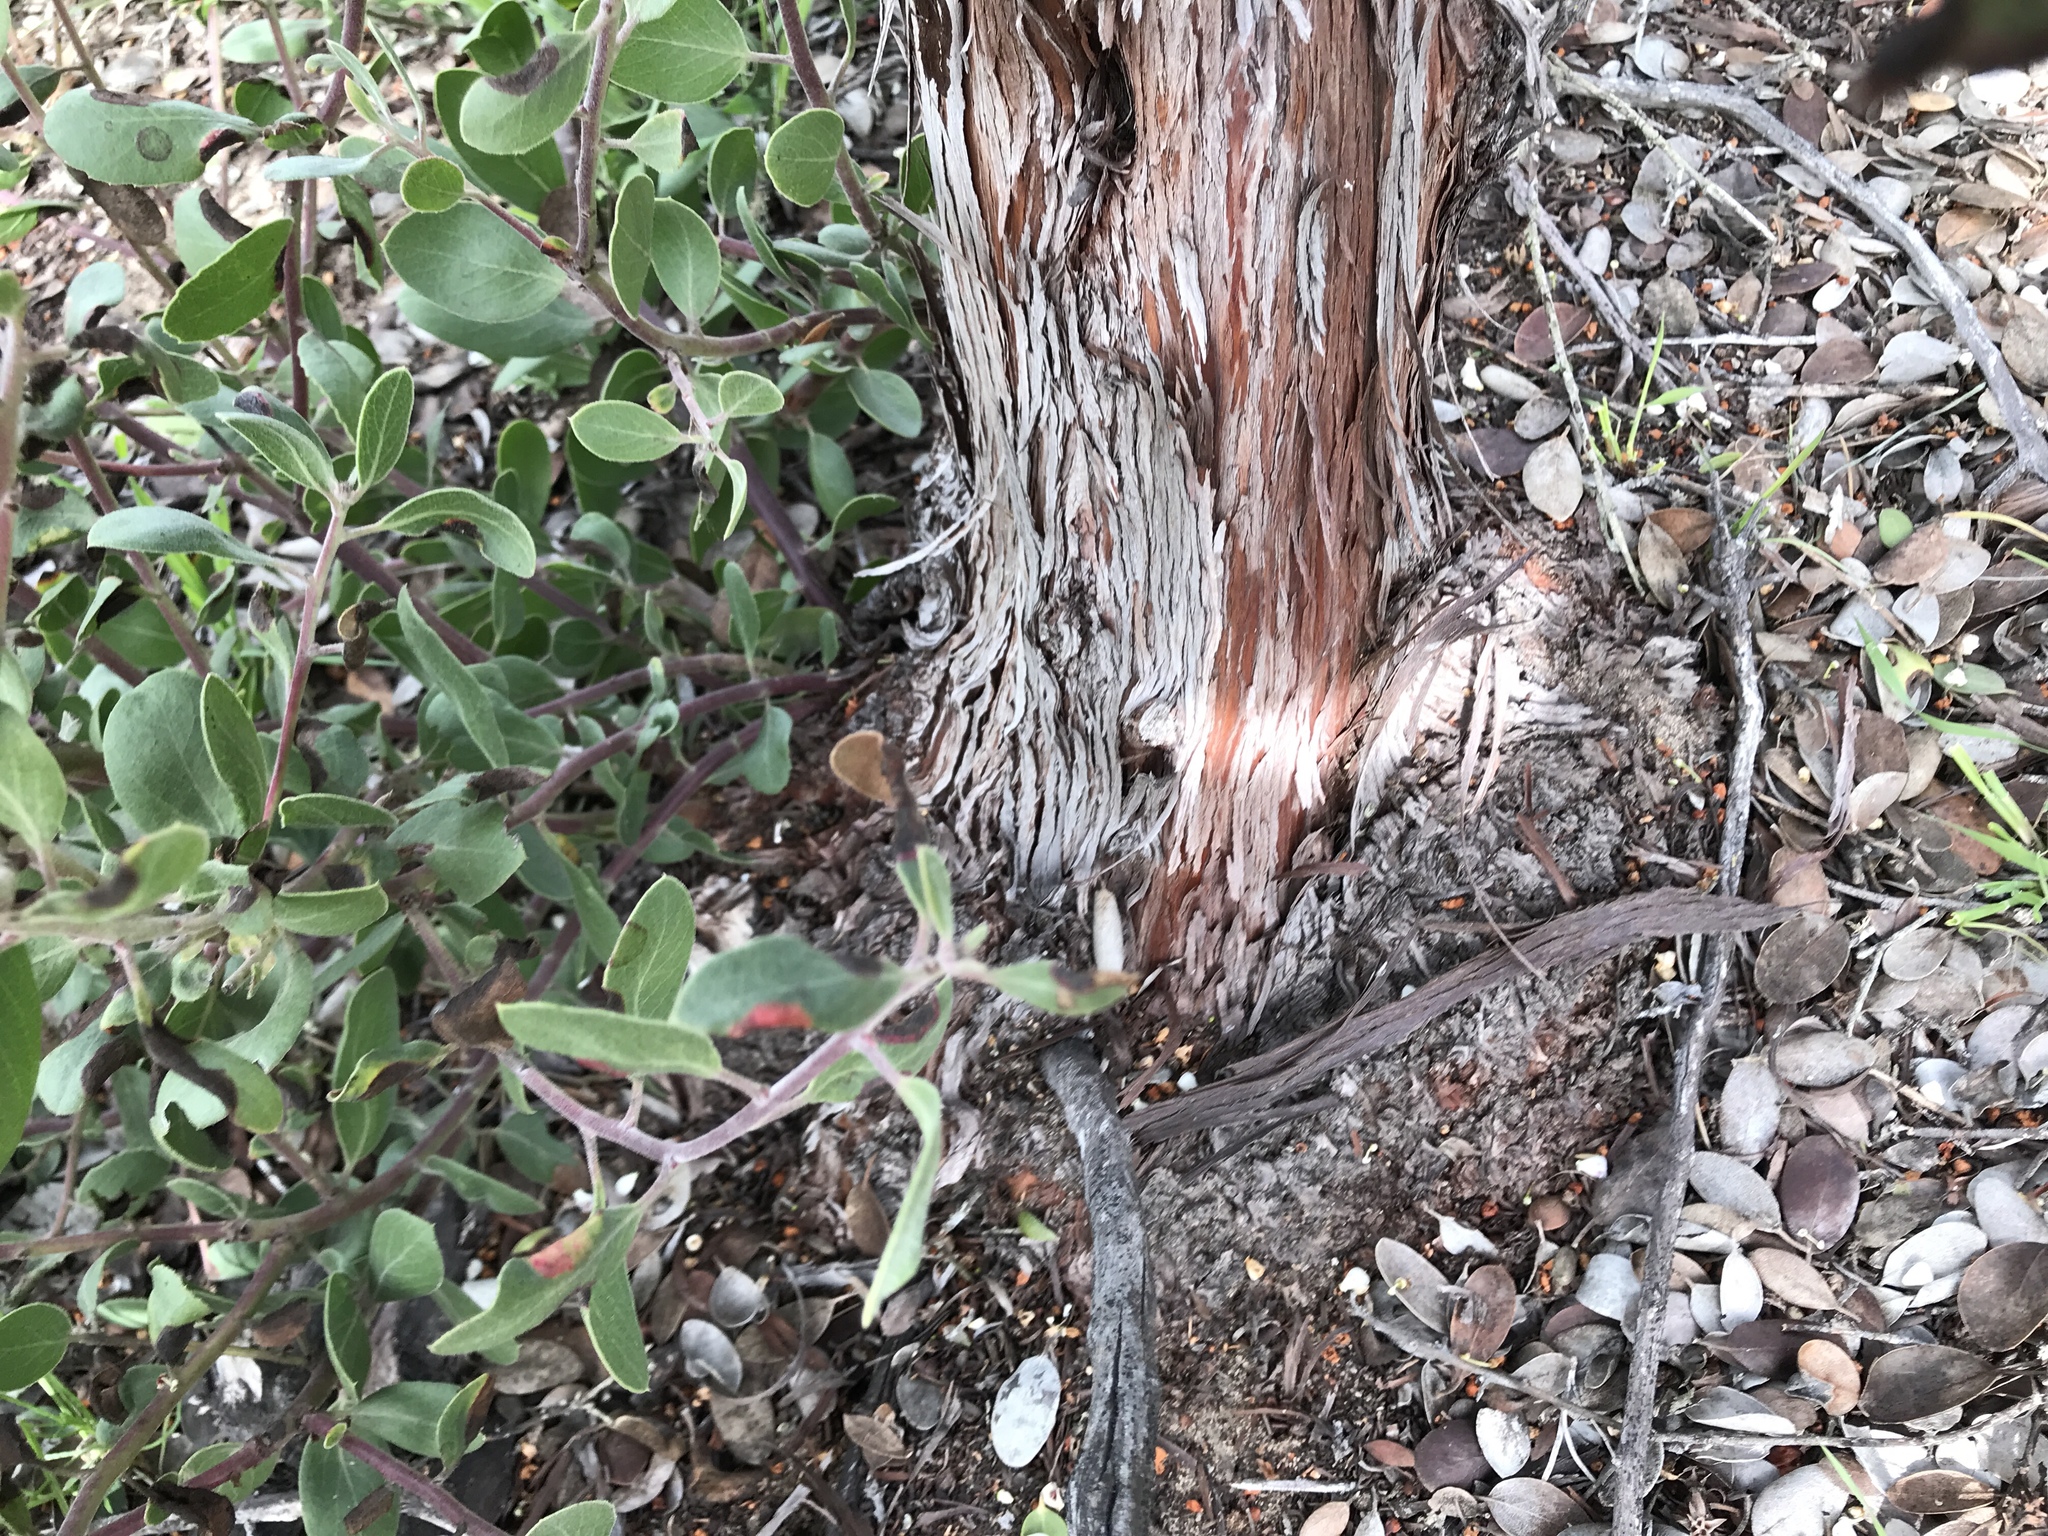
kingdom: Plantae
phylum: Tracheophyta
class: Magnoliopsida
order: Ericales
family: Ericaceae
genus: Arctostaphylos
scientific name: Arctostaphylos rudis
